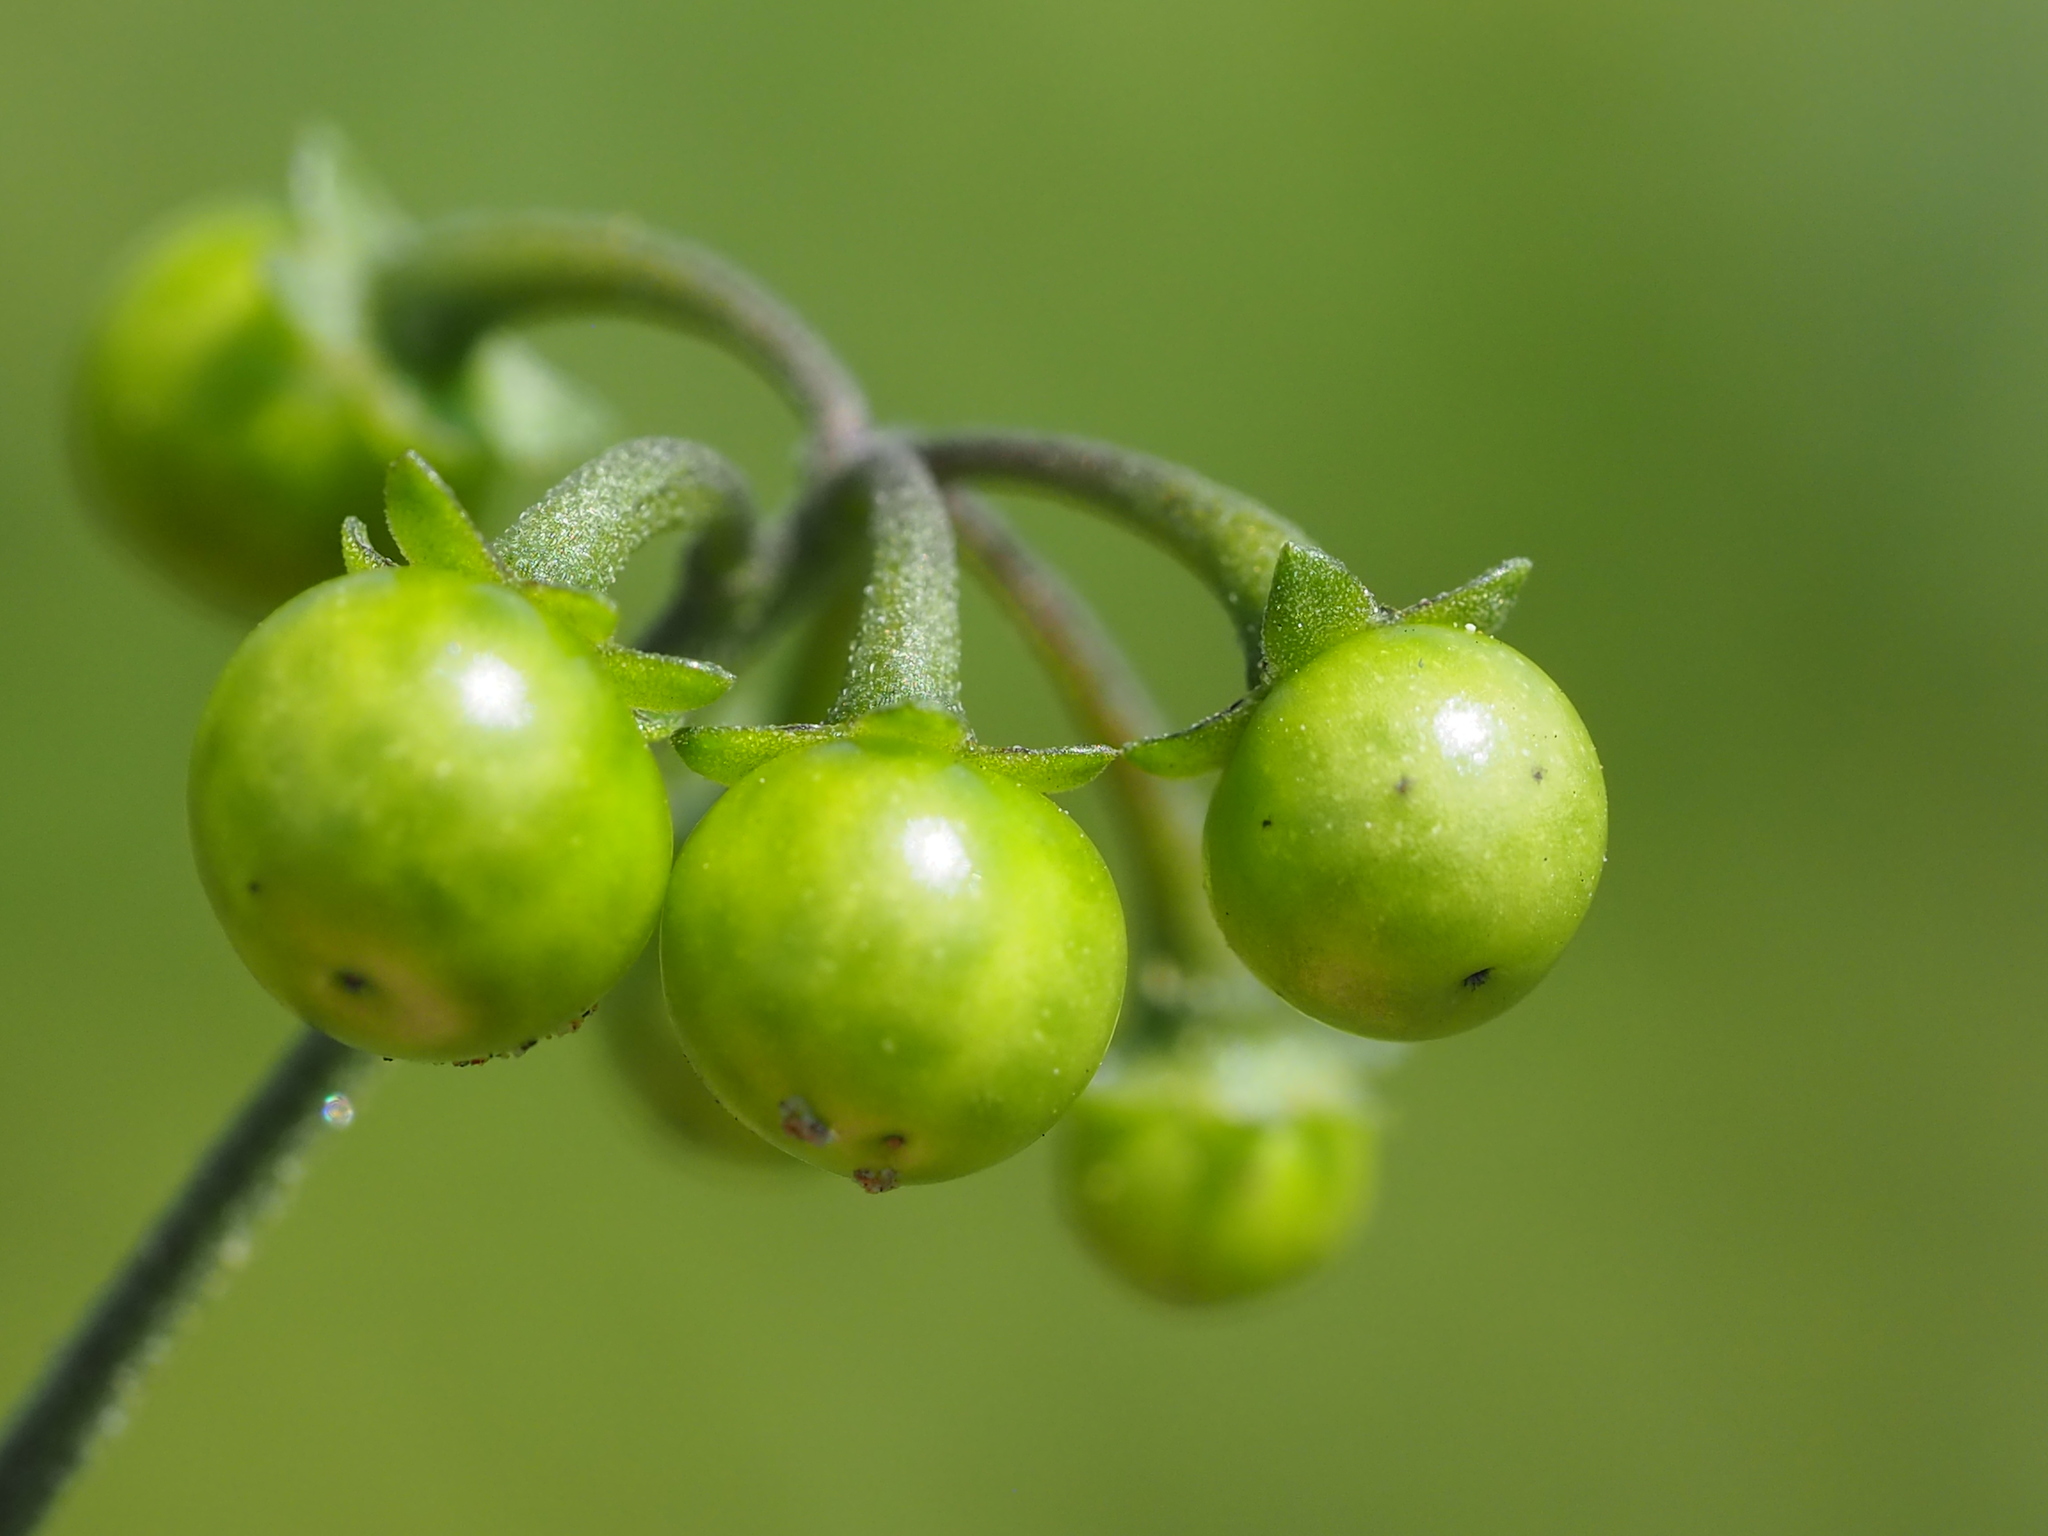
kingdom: Plantae
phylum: Tracheophyta
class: Magnoliopsida
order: Solanales
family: Solanaceae
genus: Solanum
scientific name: Solanum americanum
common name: American black nightshade
